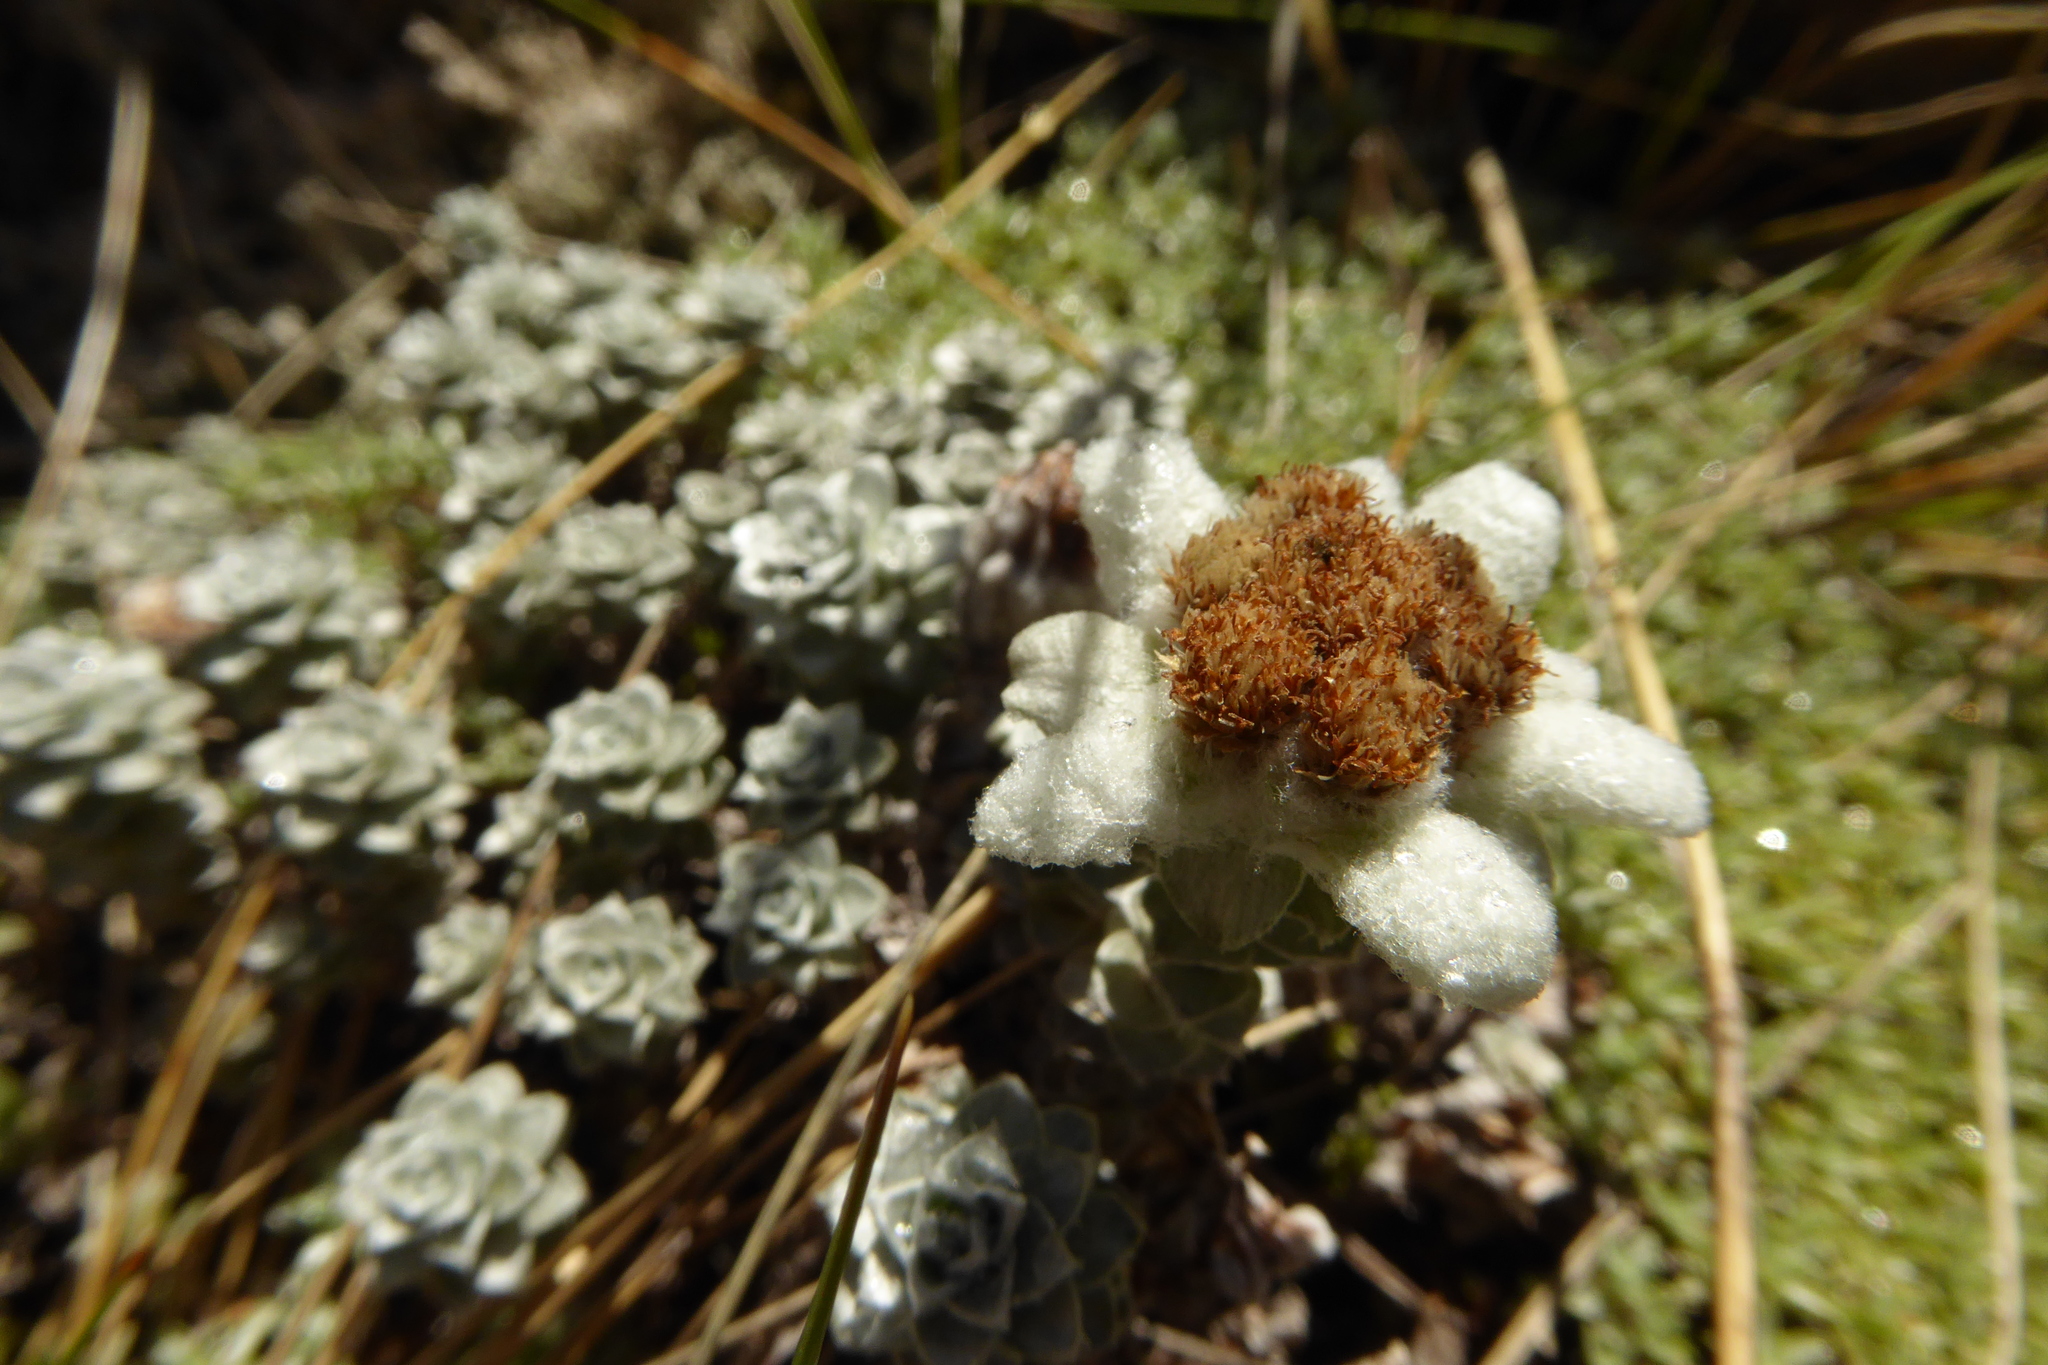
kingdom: Plantae
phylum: Tracheophyta
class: Magnoliopsida
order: Asterales
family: Asteraceae
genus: Leucogenes
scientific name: Leucogenes grandiceps
